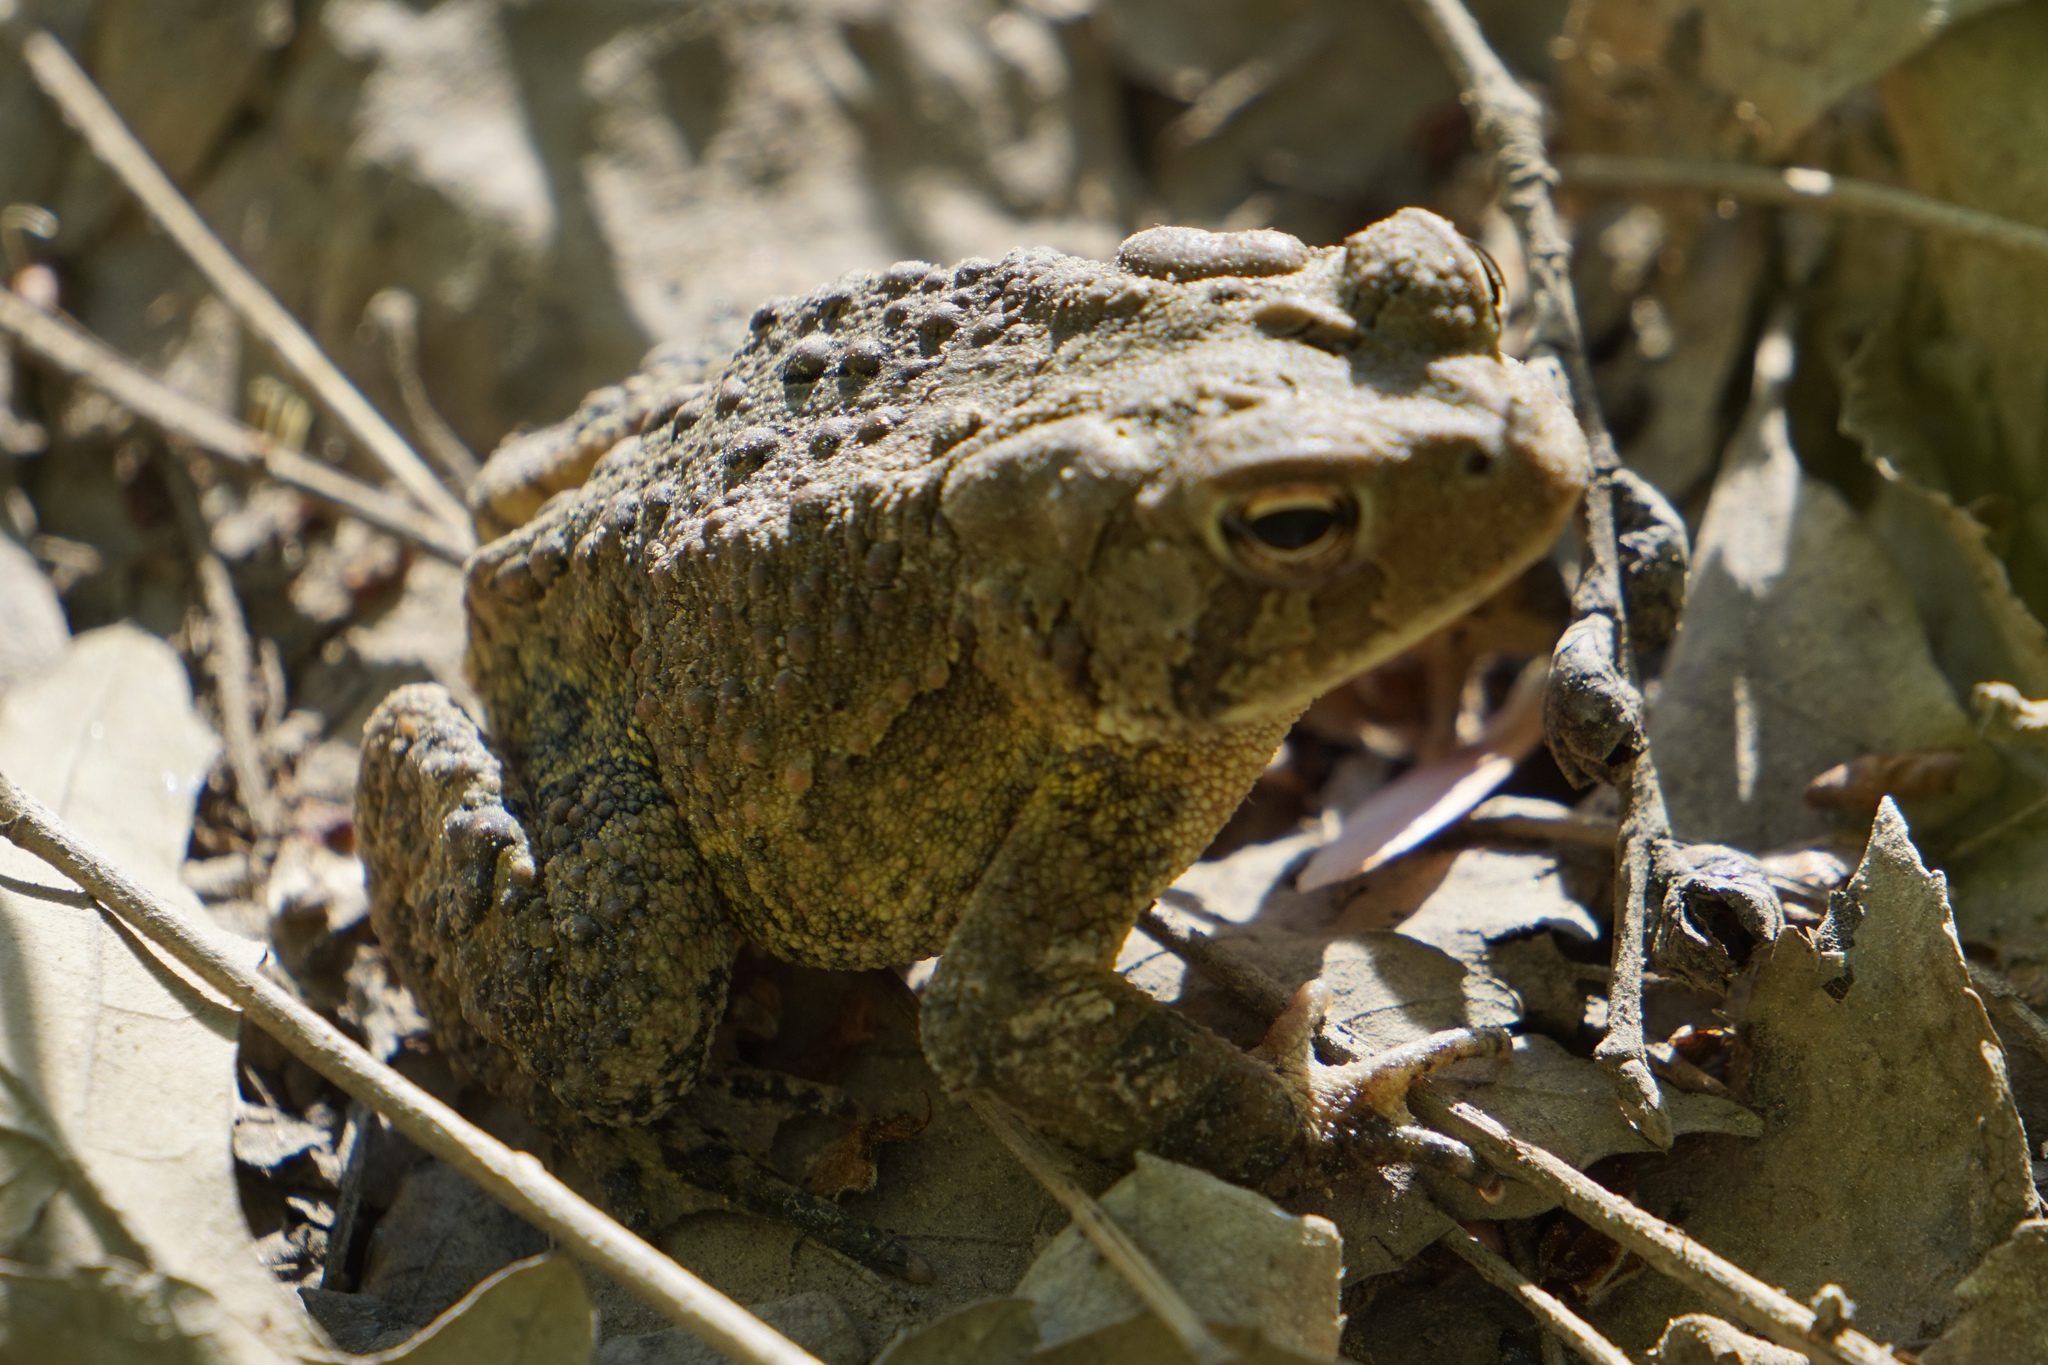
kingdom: Animalia
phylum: Chordata
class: Amphibia
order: Anura
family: Bufonidae
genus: Anaxyrus
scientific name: Anaxyrus fowleri
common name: Fowler's toad
